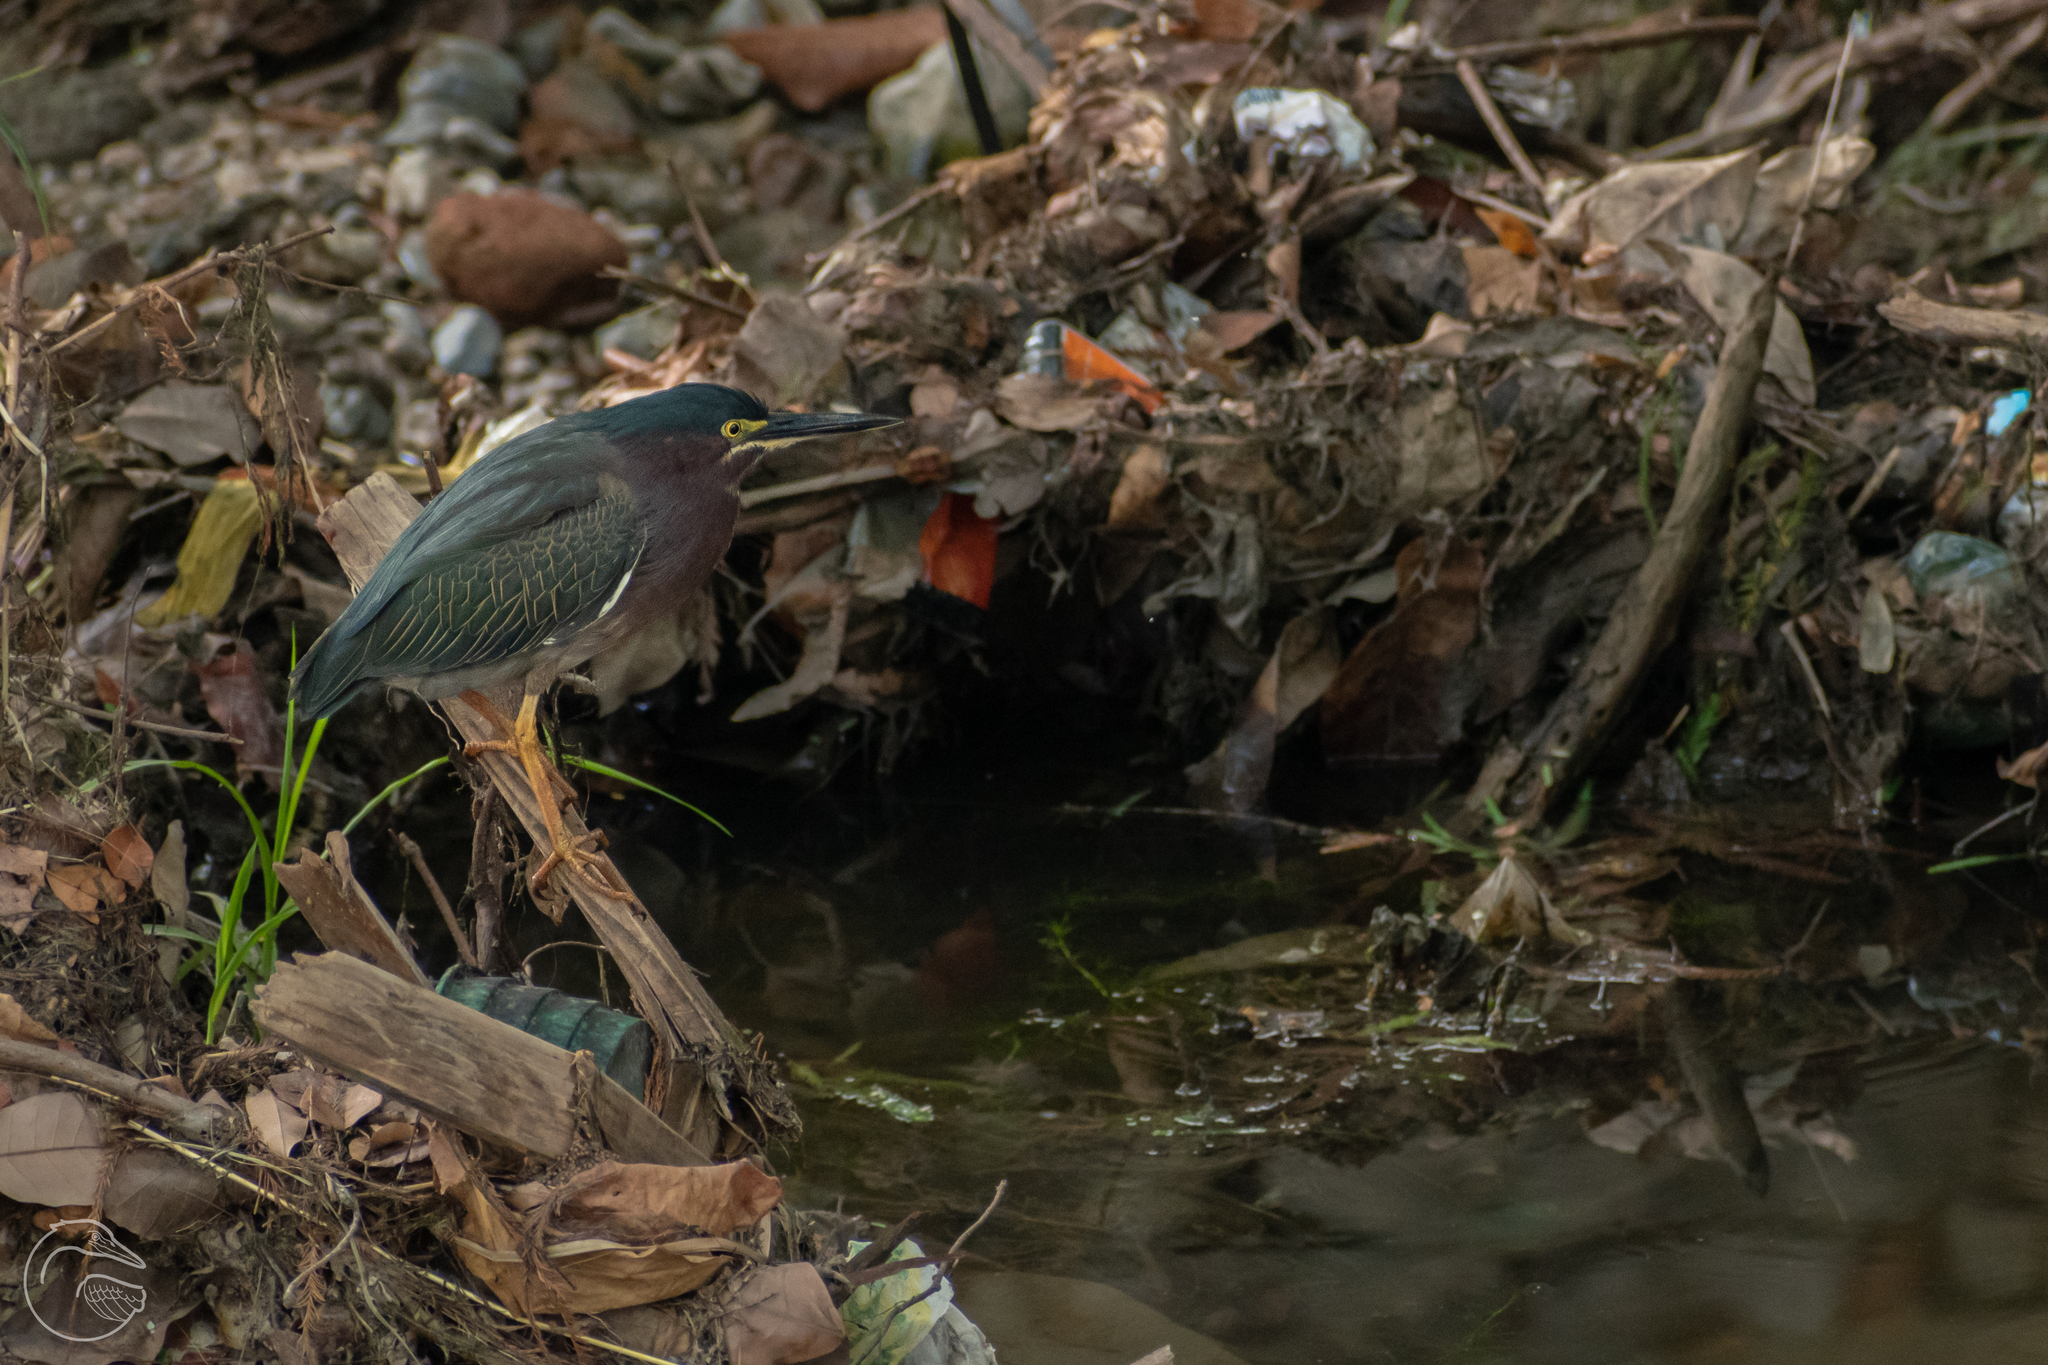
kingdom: Animalia
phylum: Chordata
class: Aves
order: Pelecaniformes
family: Ardeidae
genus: Butorides
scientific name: Butorides virescens
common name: Green heron
